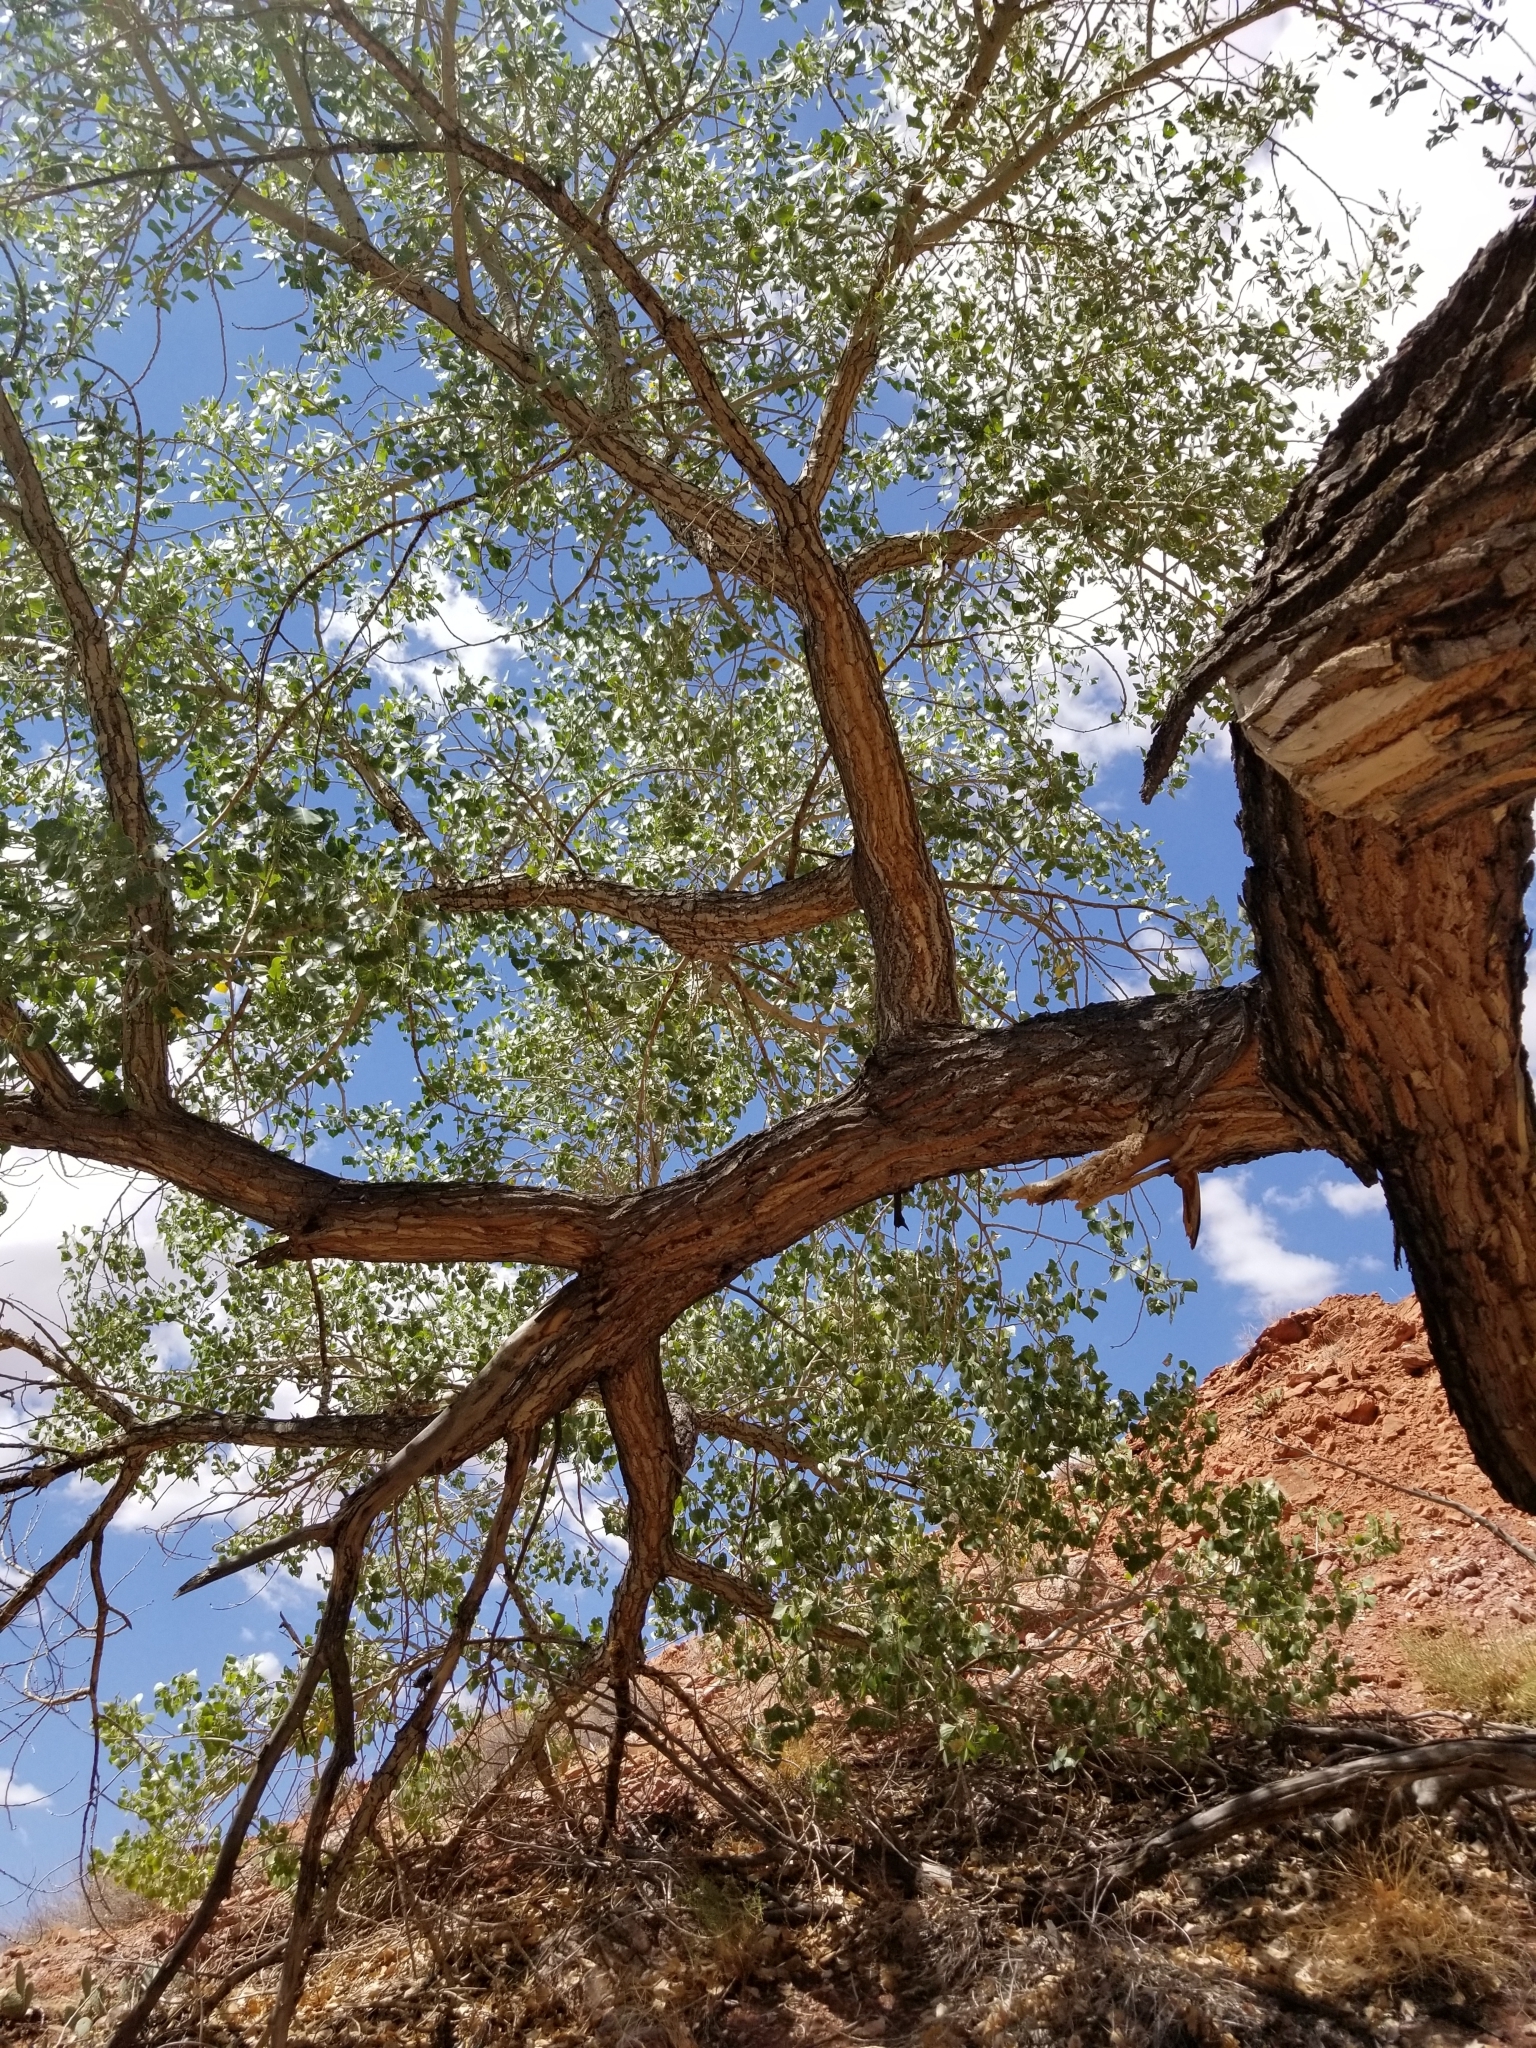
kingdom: Plantae
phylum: Tracheophyta
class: Magnoliopsida
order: Malpighiales
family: Salicaceae
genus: Populus
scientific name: Populus fremontii
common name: Fremont's cottonwood
